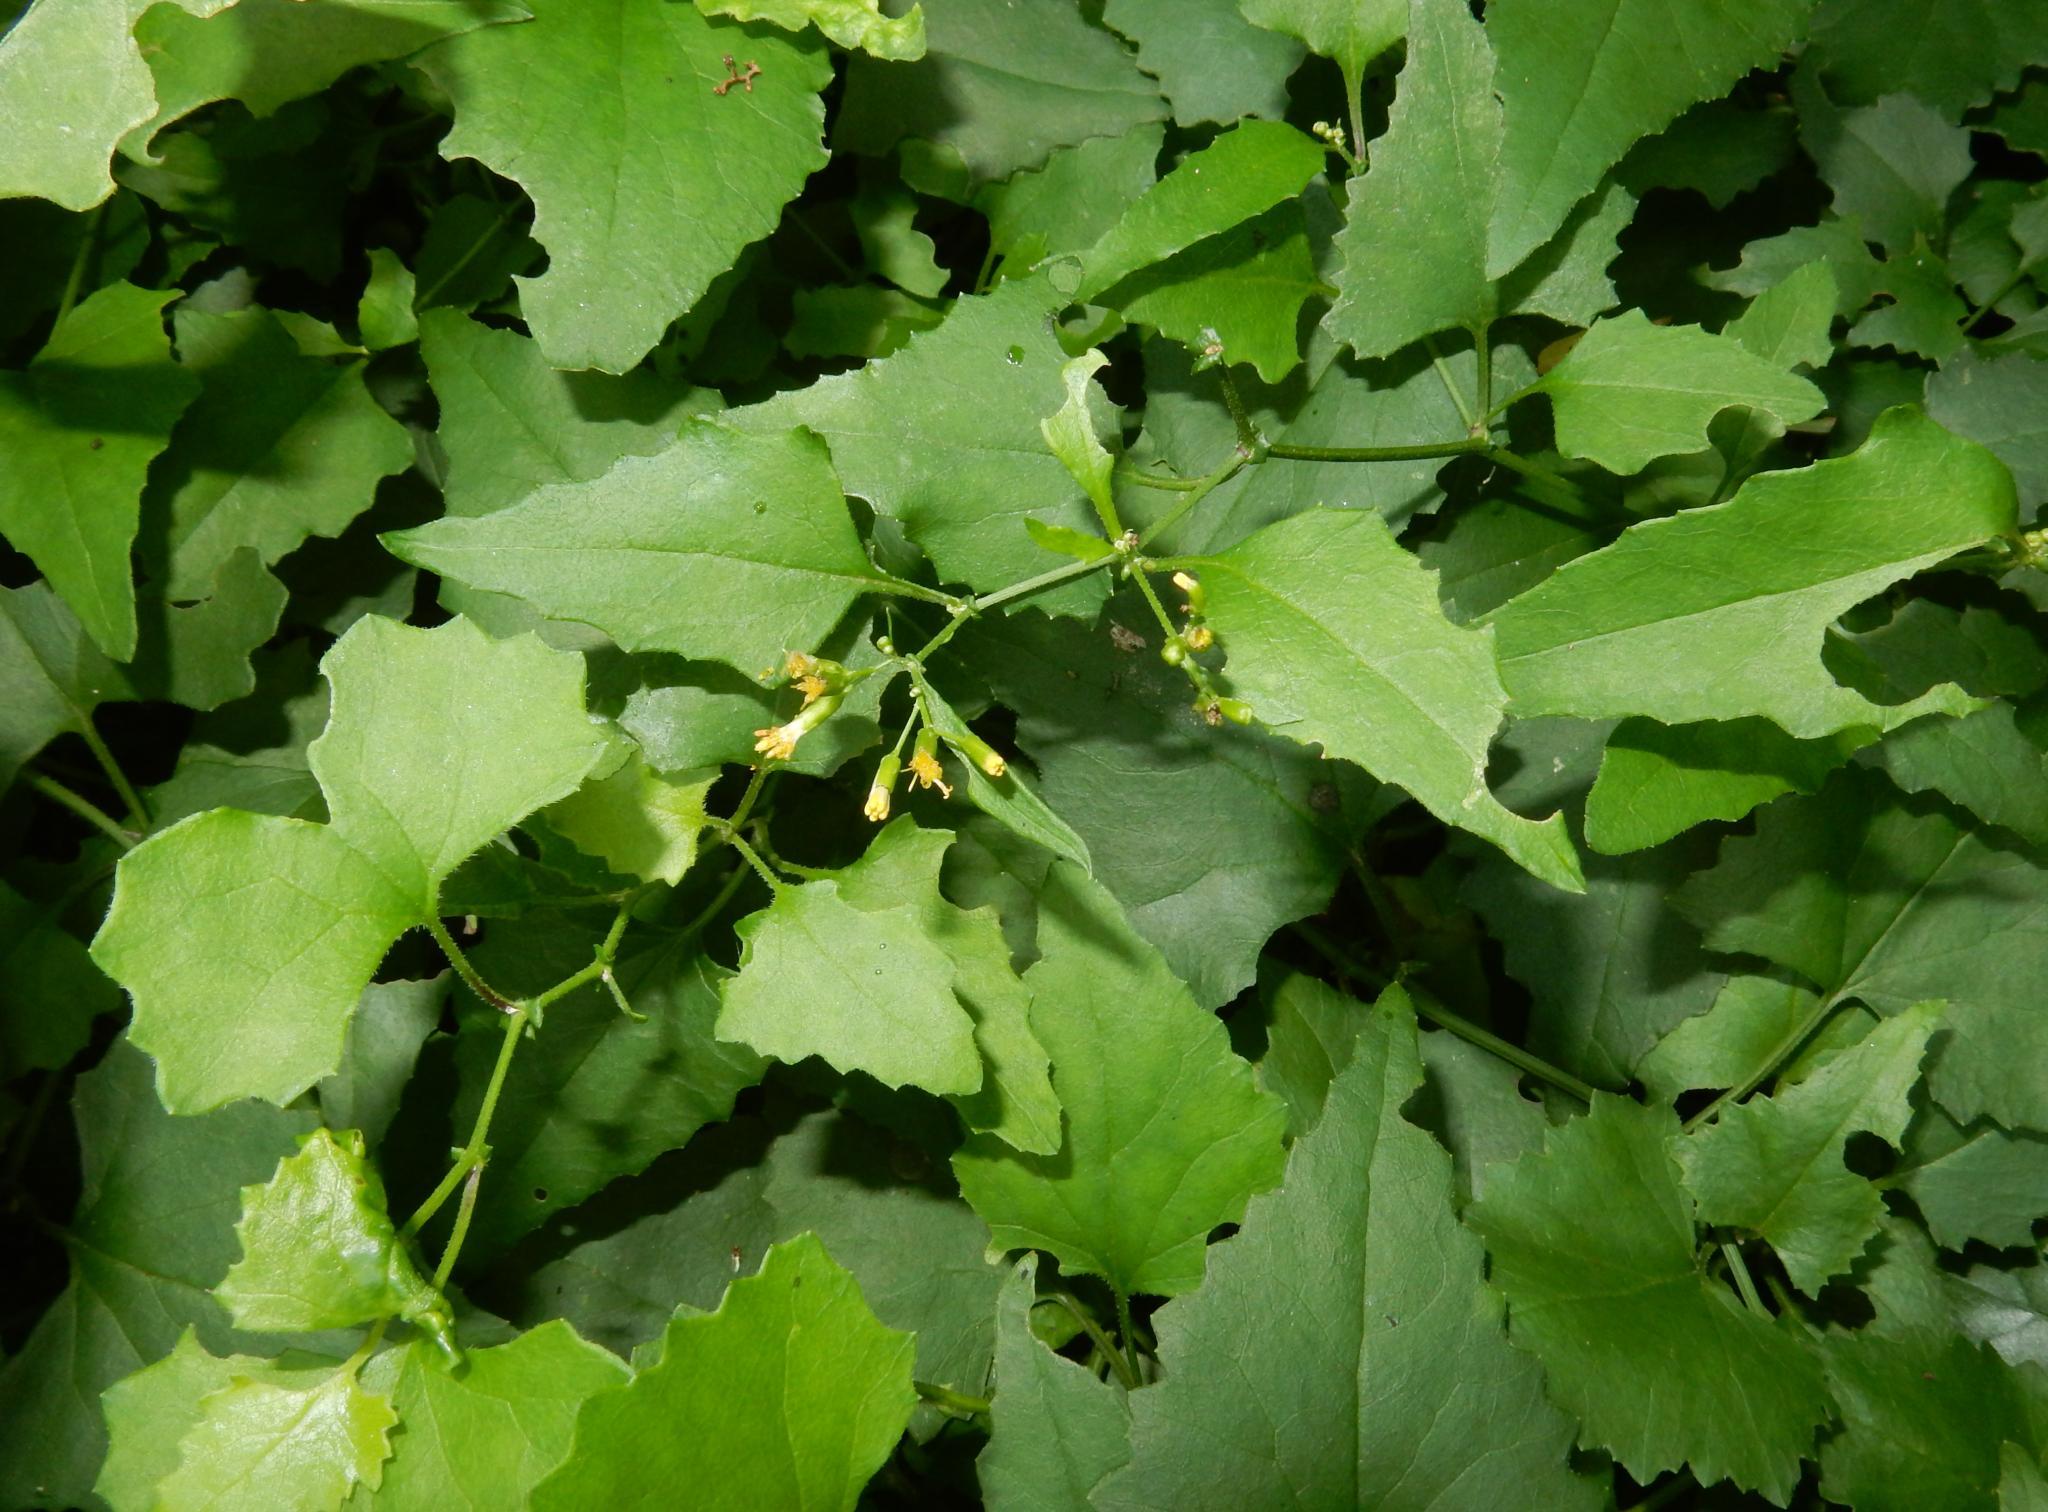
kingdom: Plantae
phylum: Tracheophyta
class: Magnoliopsida
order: Asterales
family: Asteraceae
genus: Senecio
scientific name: Senecio deltoideus
